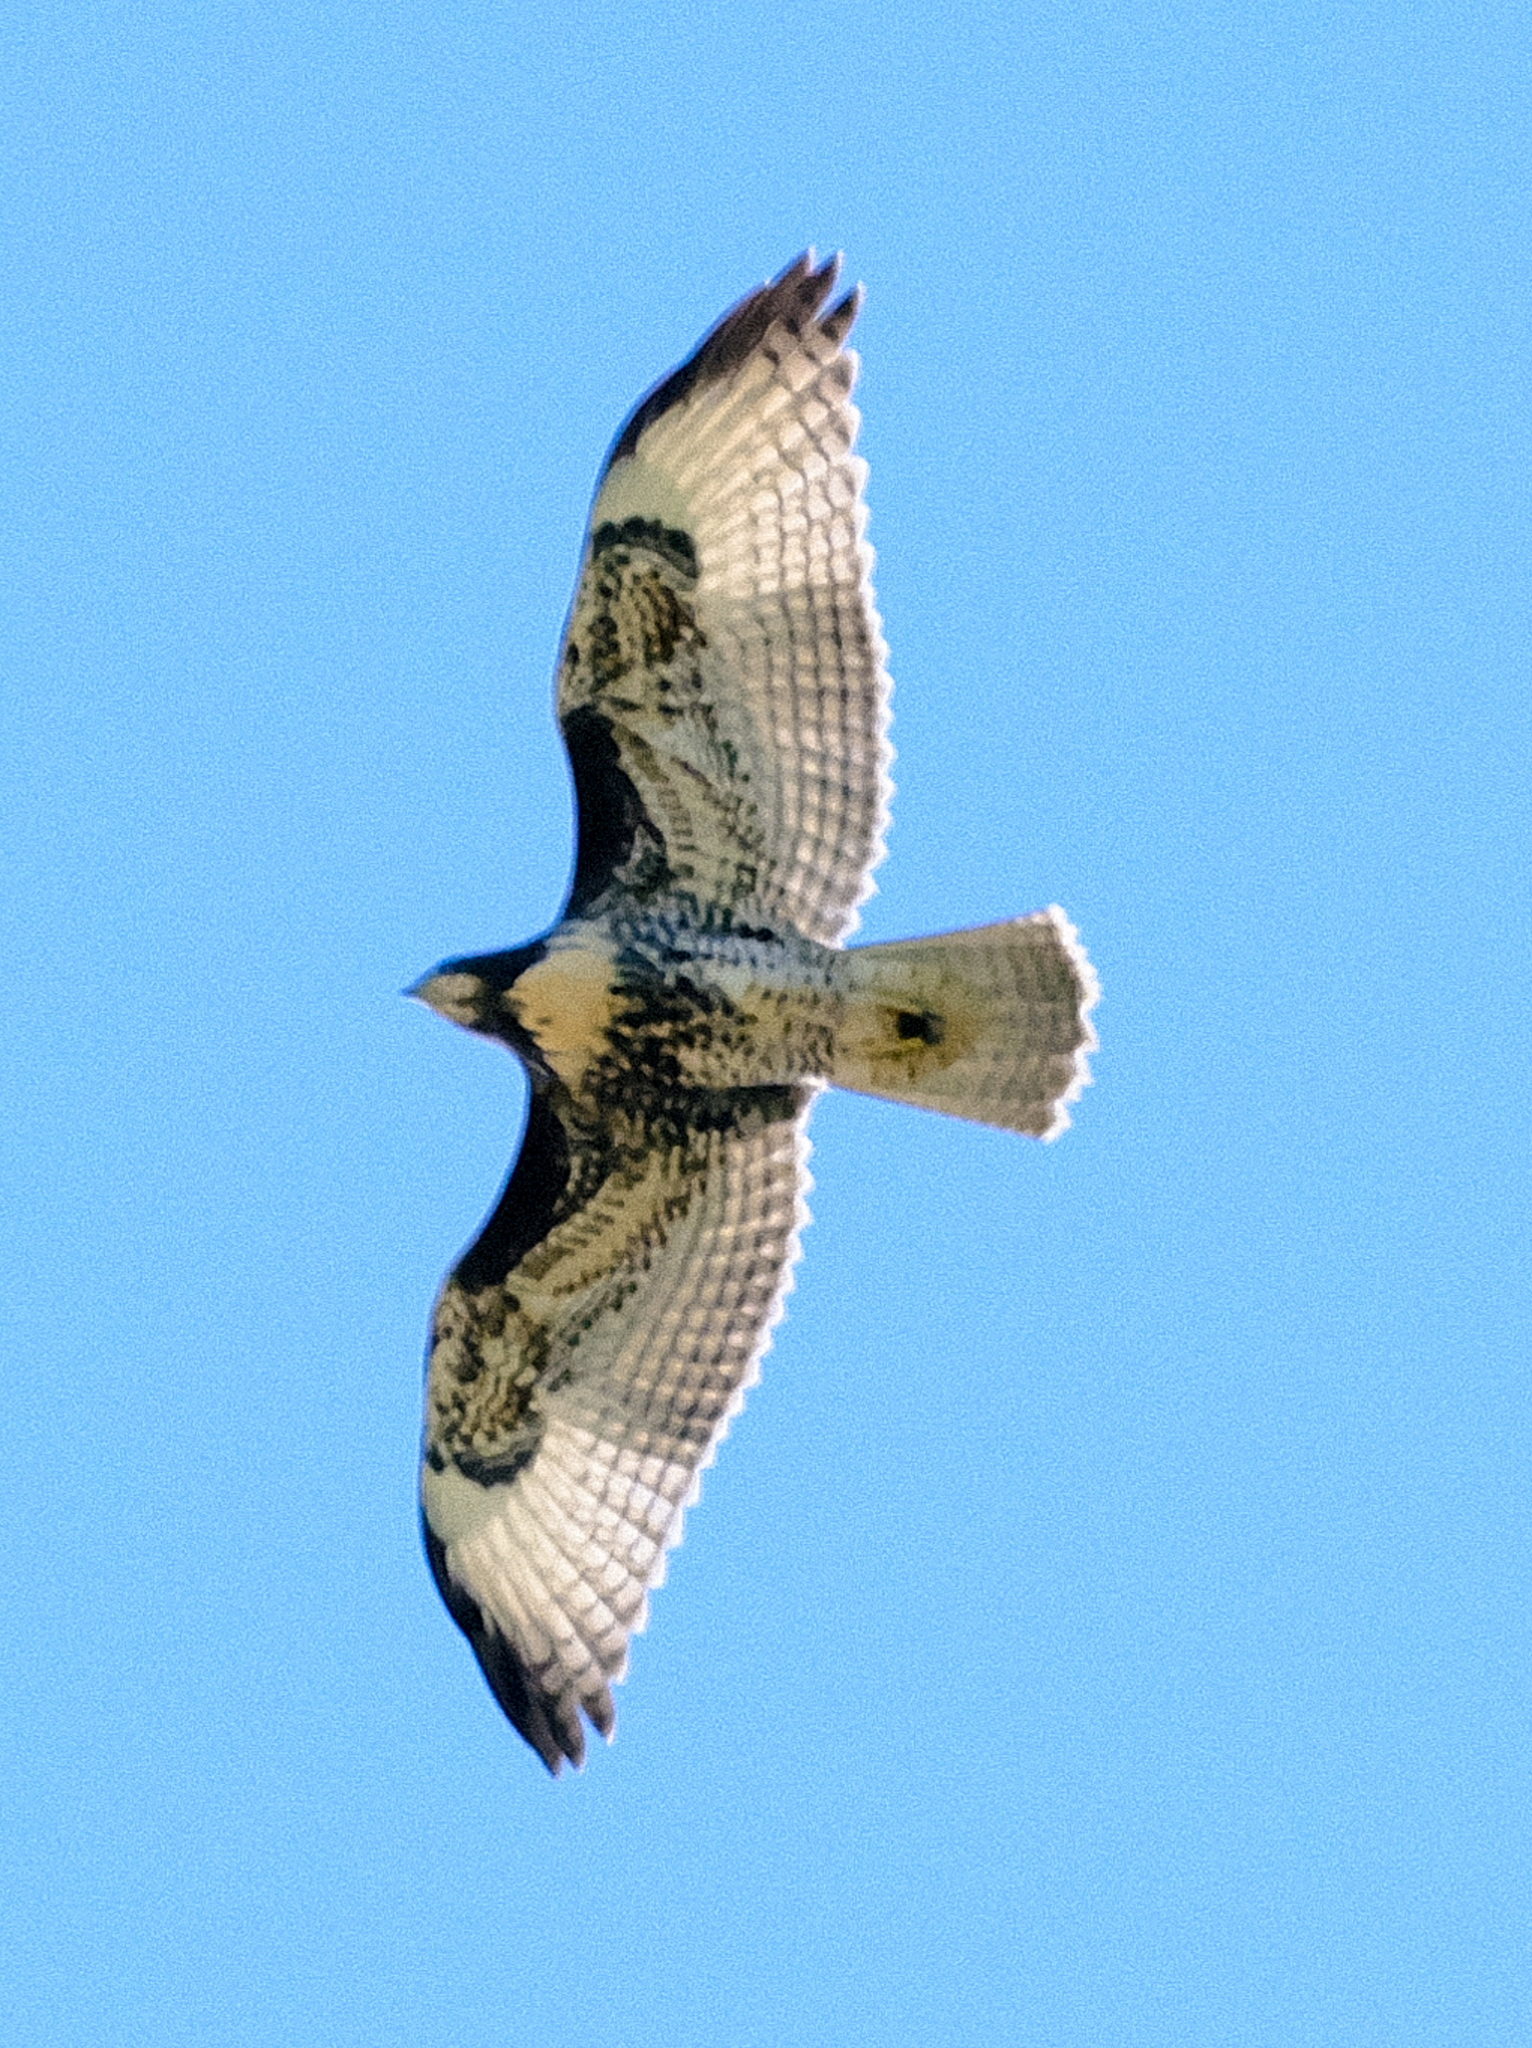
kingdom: Animalia
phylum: Chordata
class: Aves
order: Accipitriformes
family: Accipitridae
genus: Buteo
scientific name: Buteo jamaicensis
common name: Red-tailed hawk
